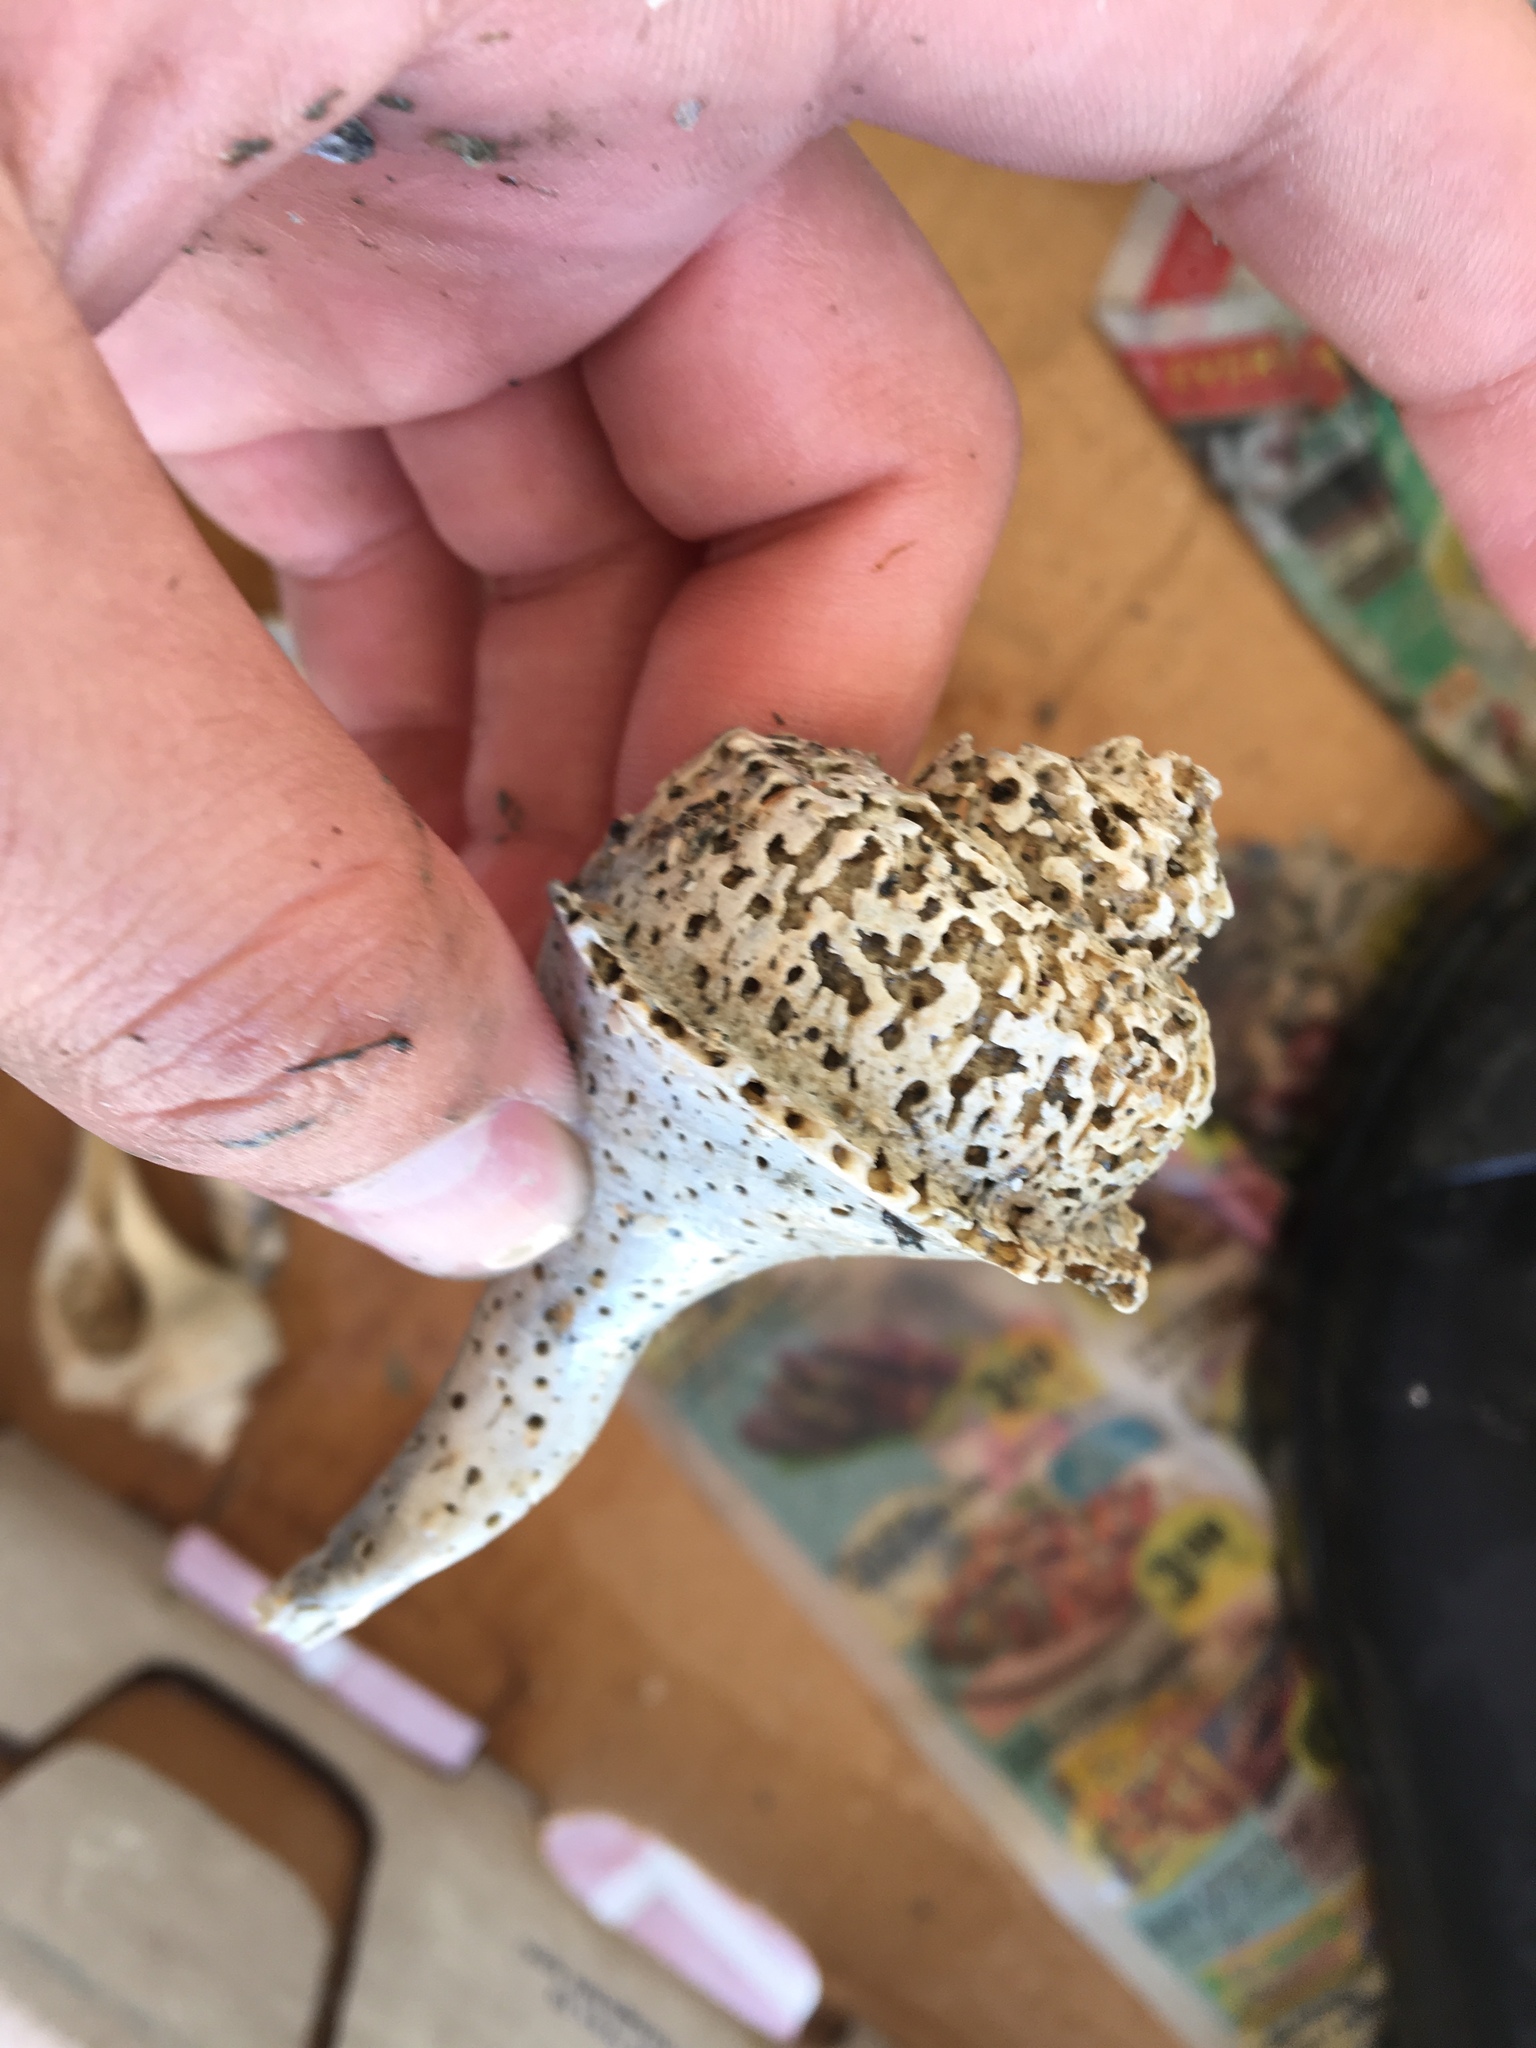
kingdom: Animalia
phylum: Mollusca
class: Gastropoda
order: Neogastropoda
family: Busyconidae
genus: Busycotypus
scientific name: Busycotypus canaliculatus
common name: Channeled whelk
